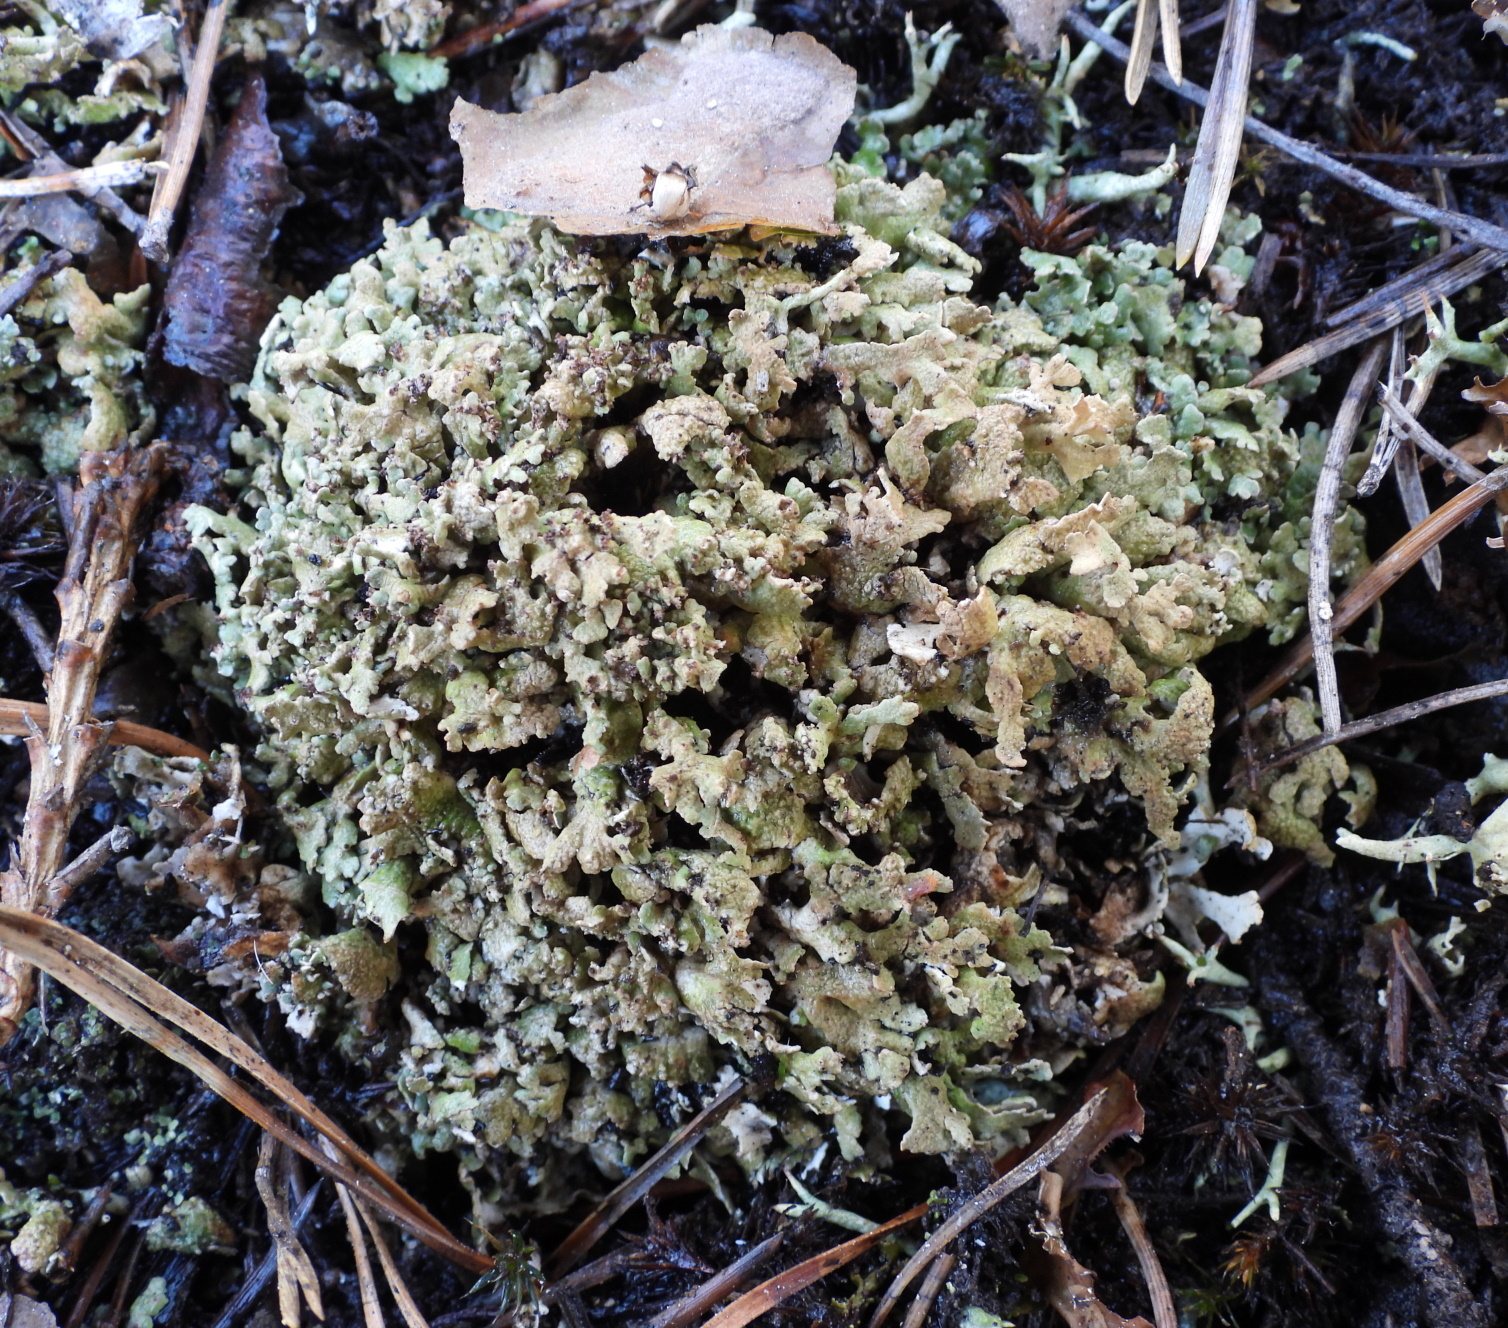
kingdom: Fungi
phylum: Ascomycota
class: Lecanoromycetes
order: Lecanorales
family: Cladoniaceae
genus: Cladonia
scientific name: Cladonia strepsilis
